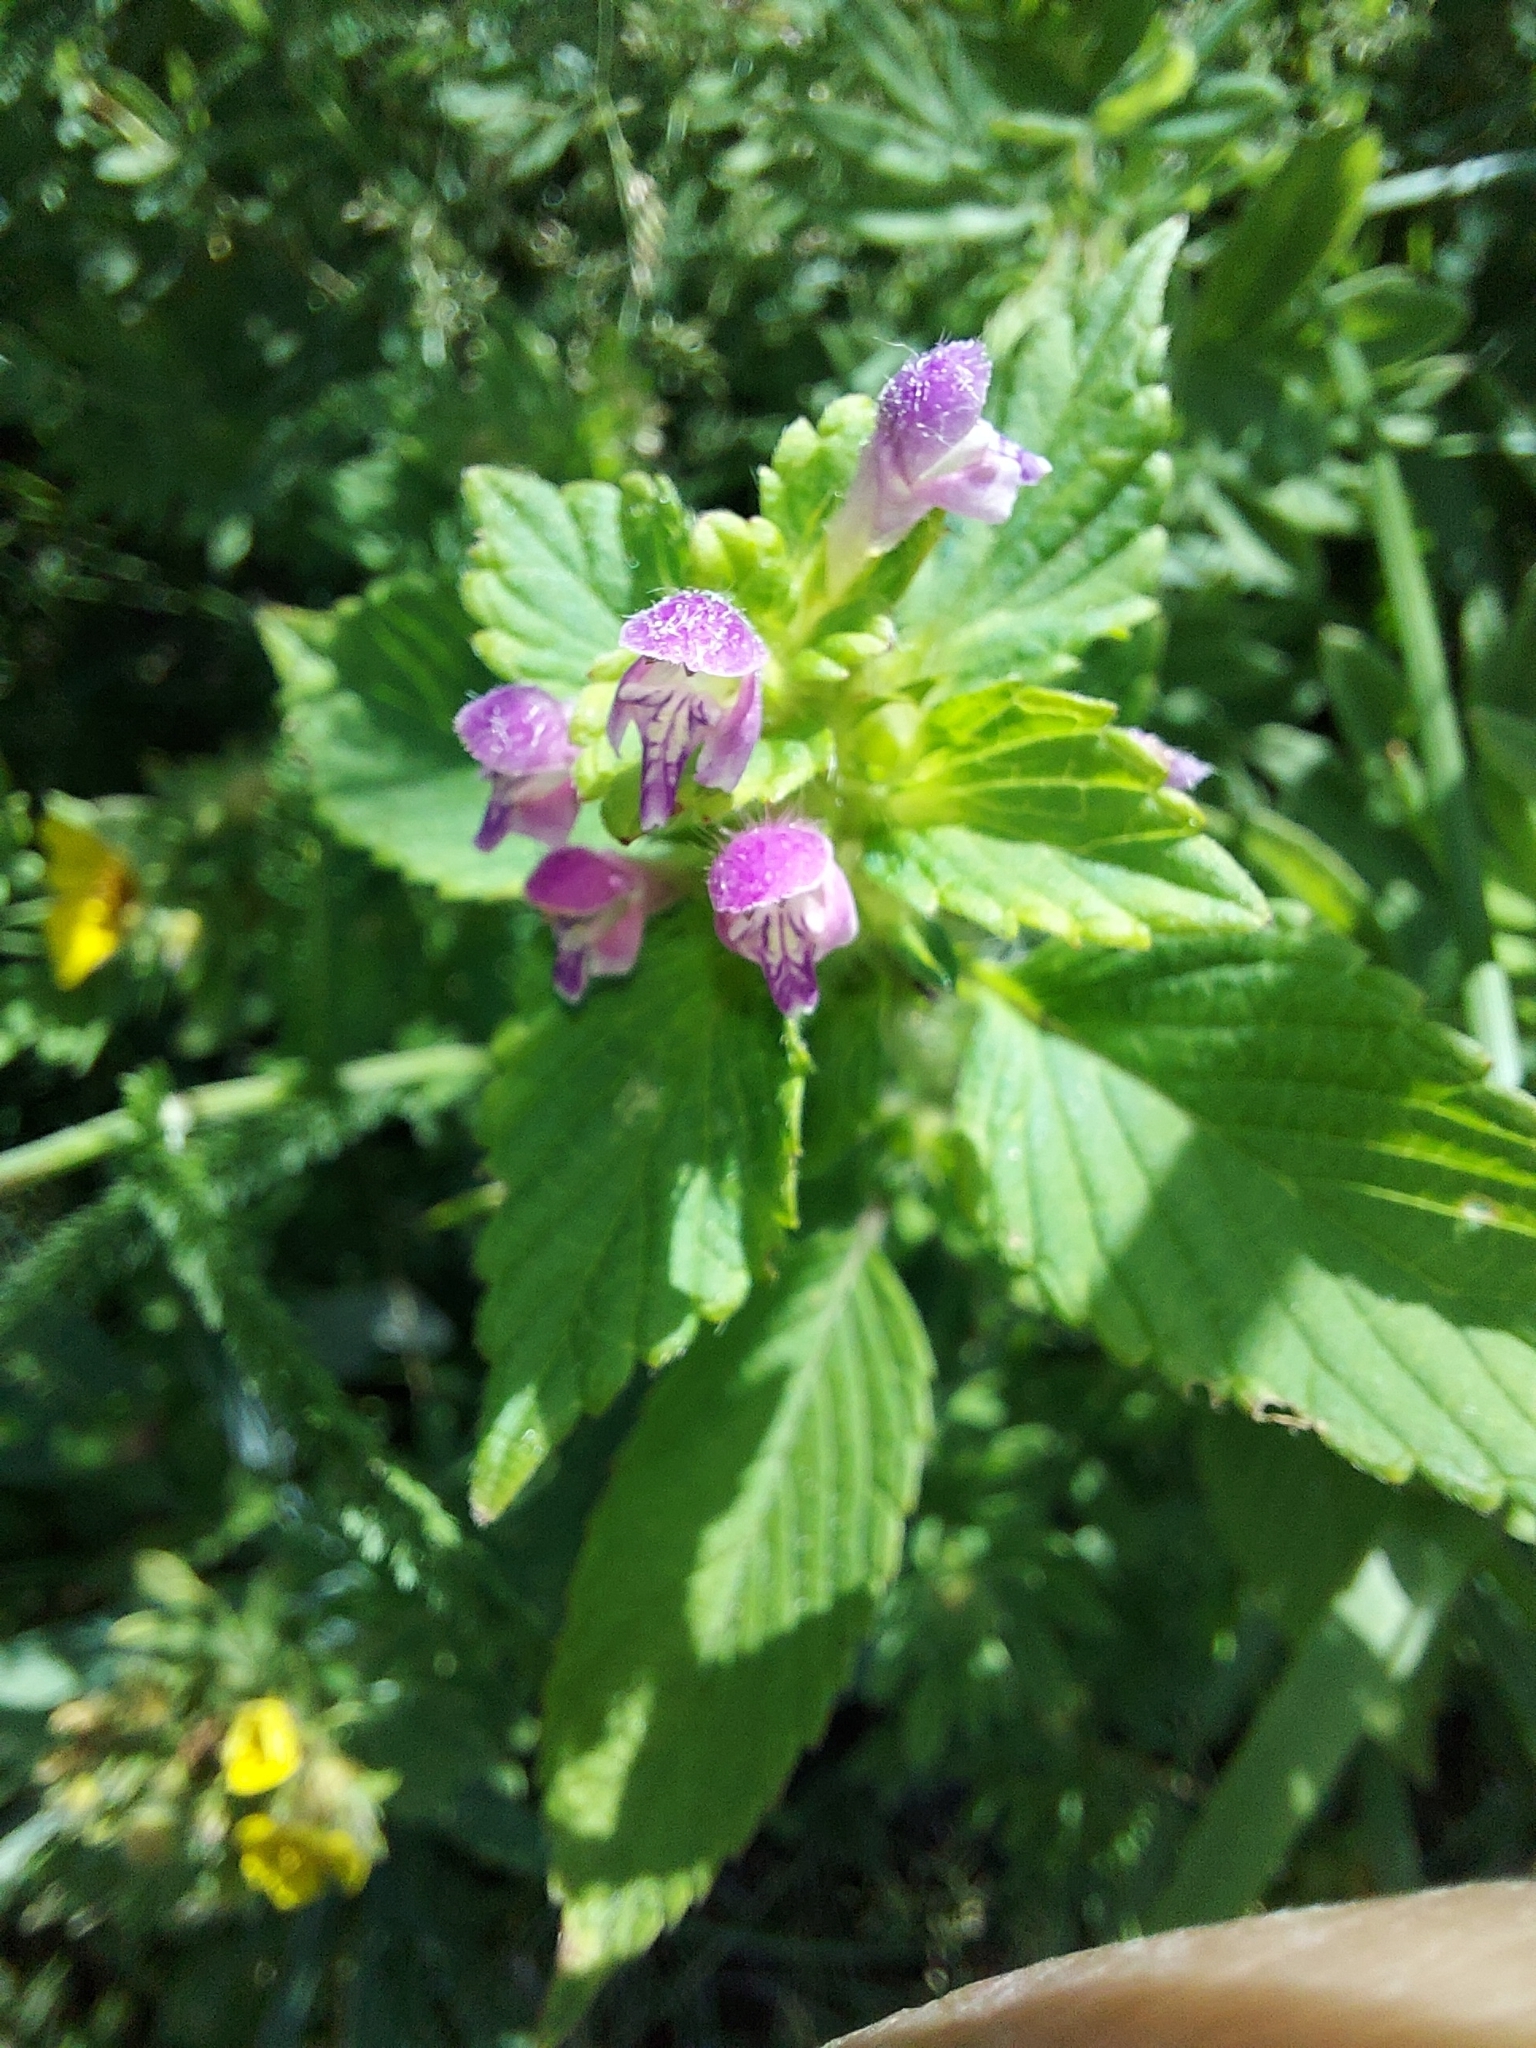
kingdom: Plantae
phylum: Tracheophyta
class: Magnoliopsida
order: Lamiales
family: Lamiaceae
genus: Galeopsis
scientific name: Galeopsis bifida
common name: Bifid hemp-nettle
